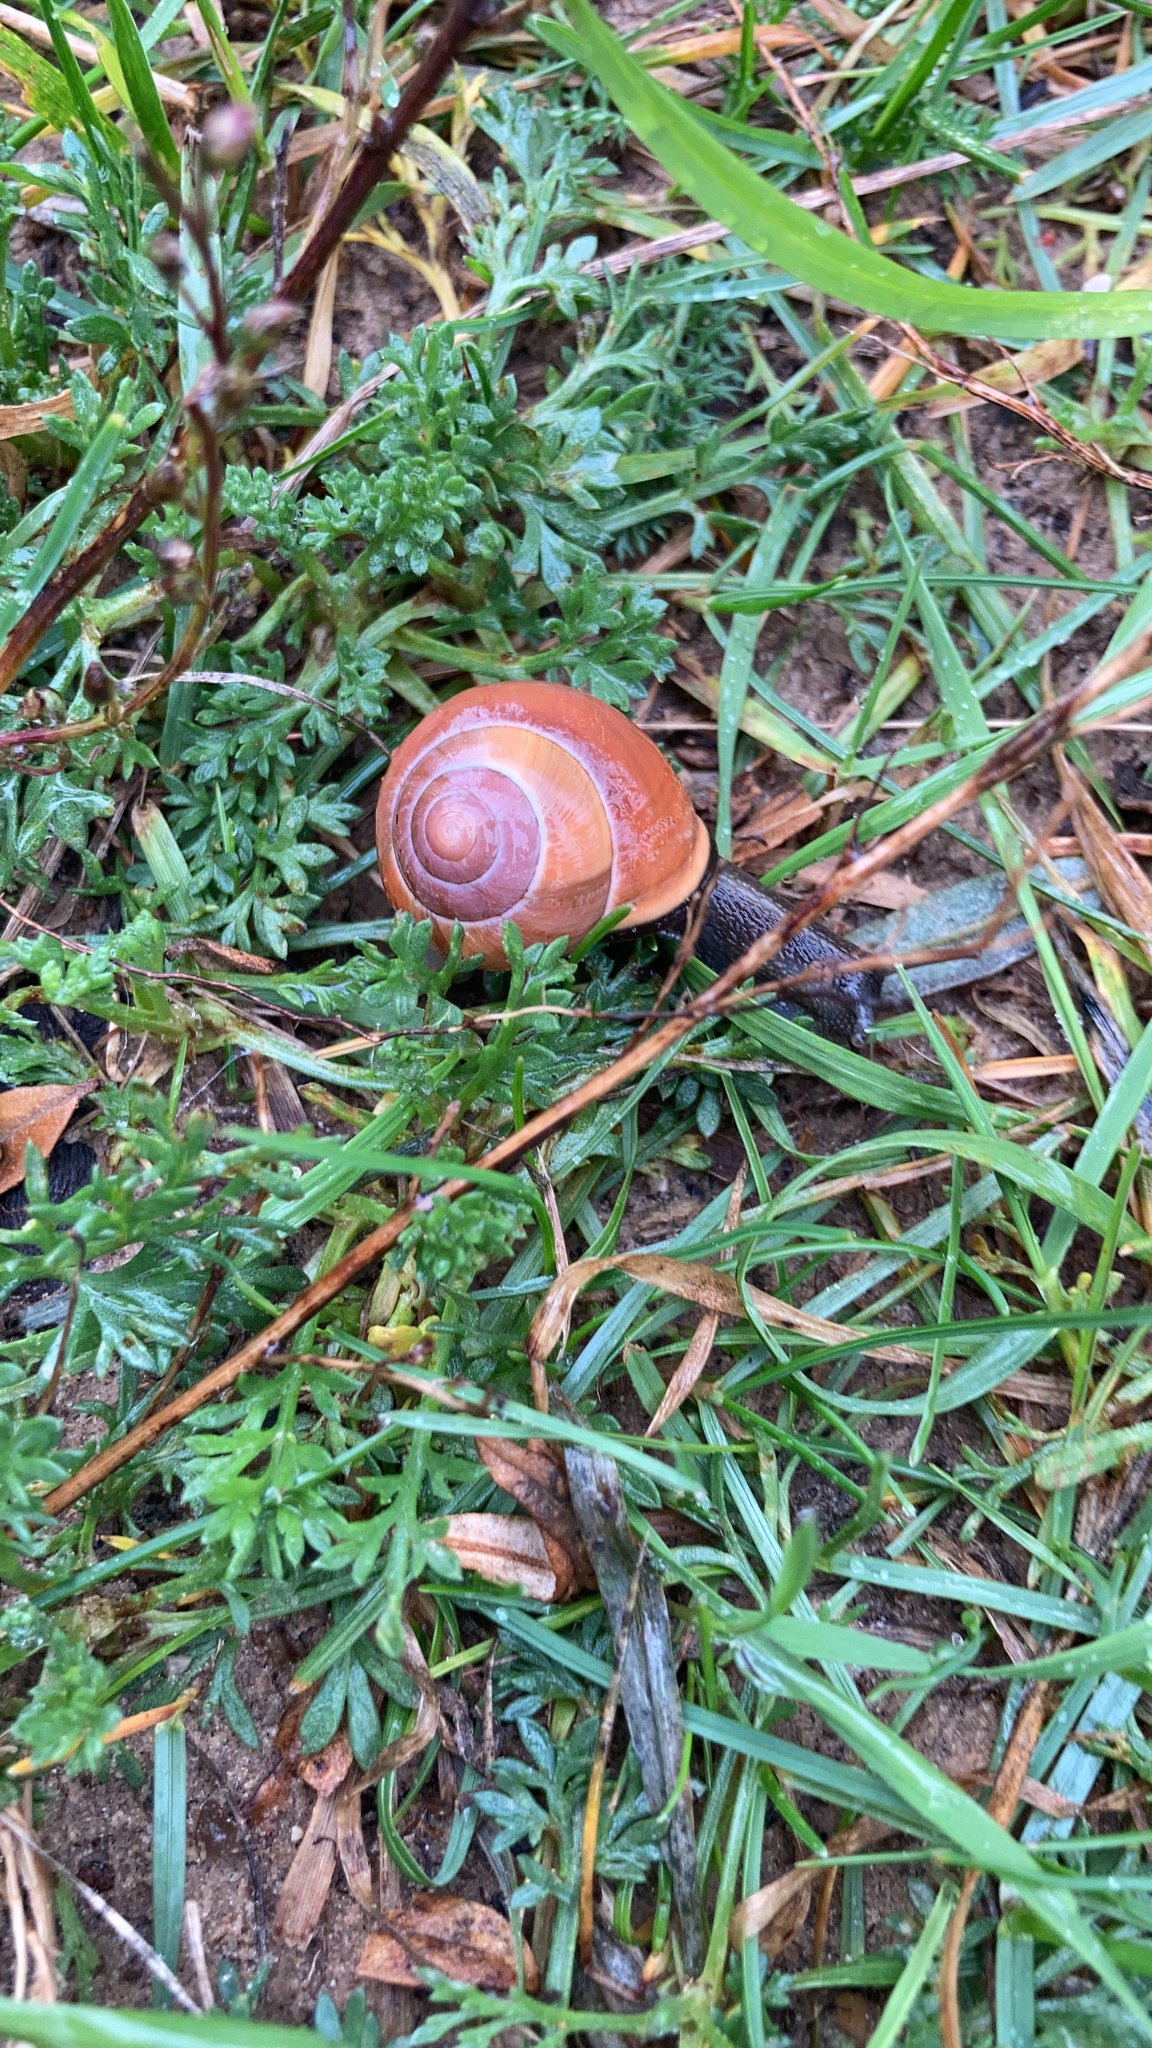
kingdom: Animalia
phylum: Mollusca
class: Gastropoda
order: Stylommatophora
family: Helicidae
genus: Cepaea
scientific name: Cepaea nemoralis
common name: Grovesnail
